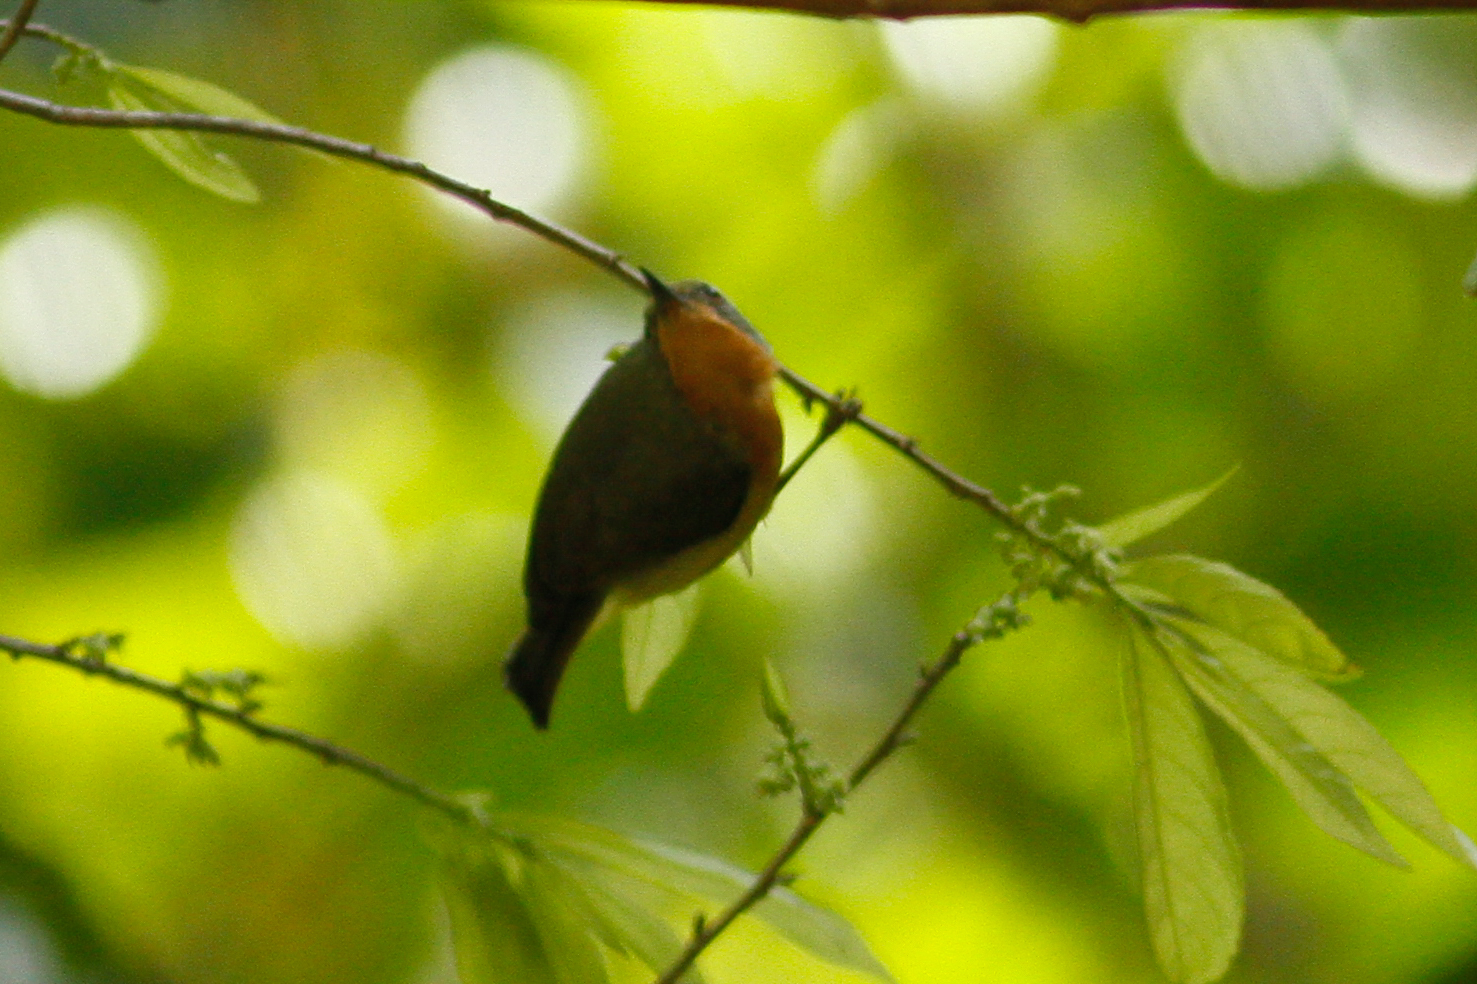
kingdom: Animalia
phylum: Chordata
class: Aves
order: Passeriformes
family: Nectariniidae
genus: Chalcoparia
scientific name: Chalcoparia singalensis
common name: Ruby-cheeked sunbird
